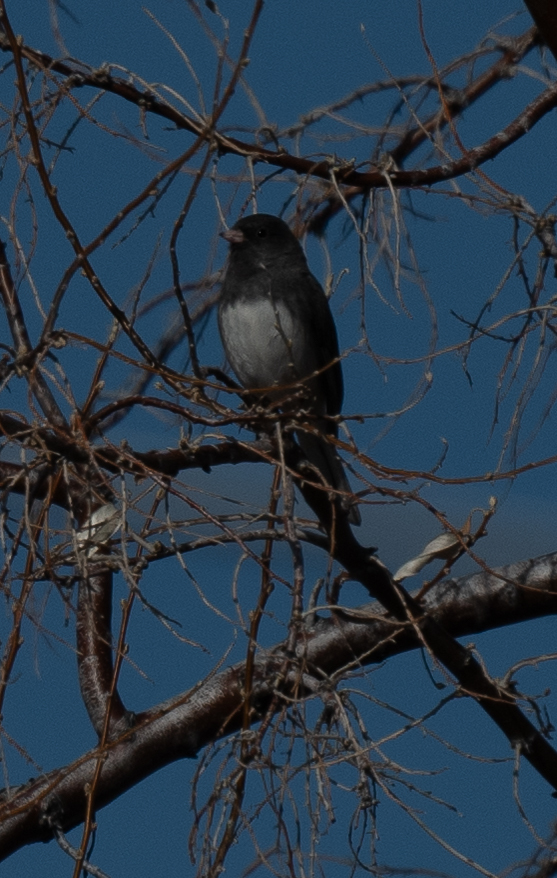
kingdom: Animalia
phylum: Chordata
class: Aves
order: Passeriformes
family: Passerellidae
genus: Junco
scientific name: Junco hyemalis
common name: Dark-eyed junco
